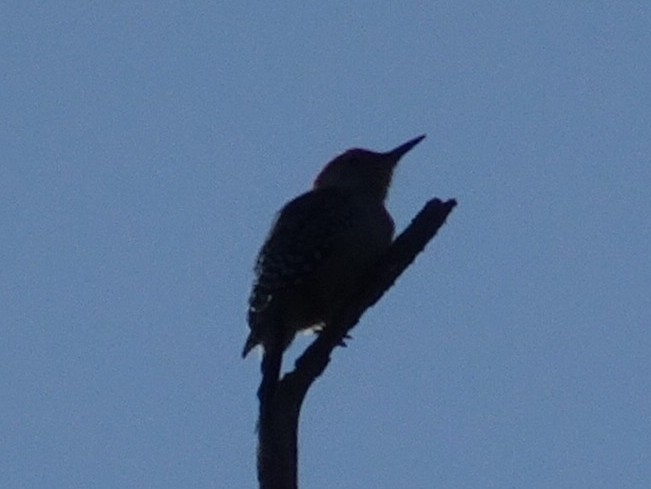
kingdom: Animalia
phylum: Chordata
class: Aves
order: Piciformes
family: Picidae
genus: Melanerpes
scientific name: Melanerpes carolinus
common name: Red-bellied woodpecker
